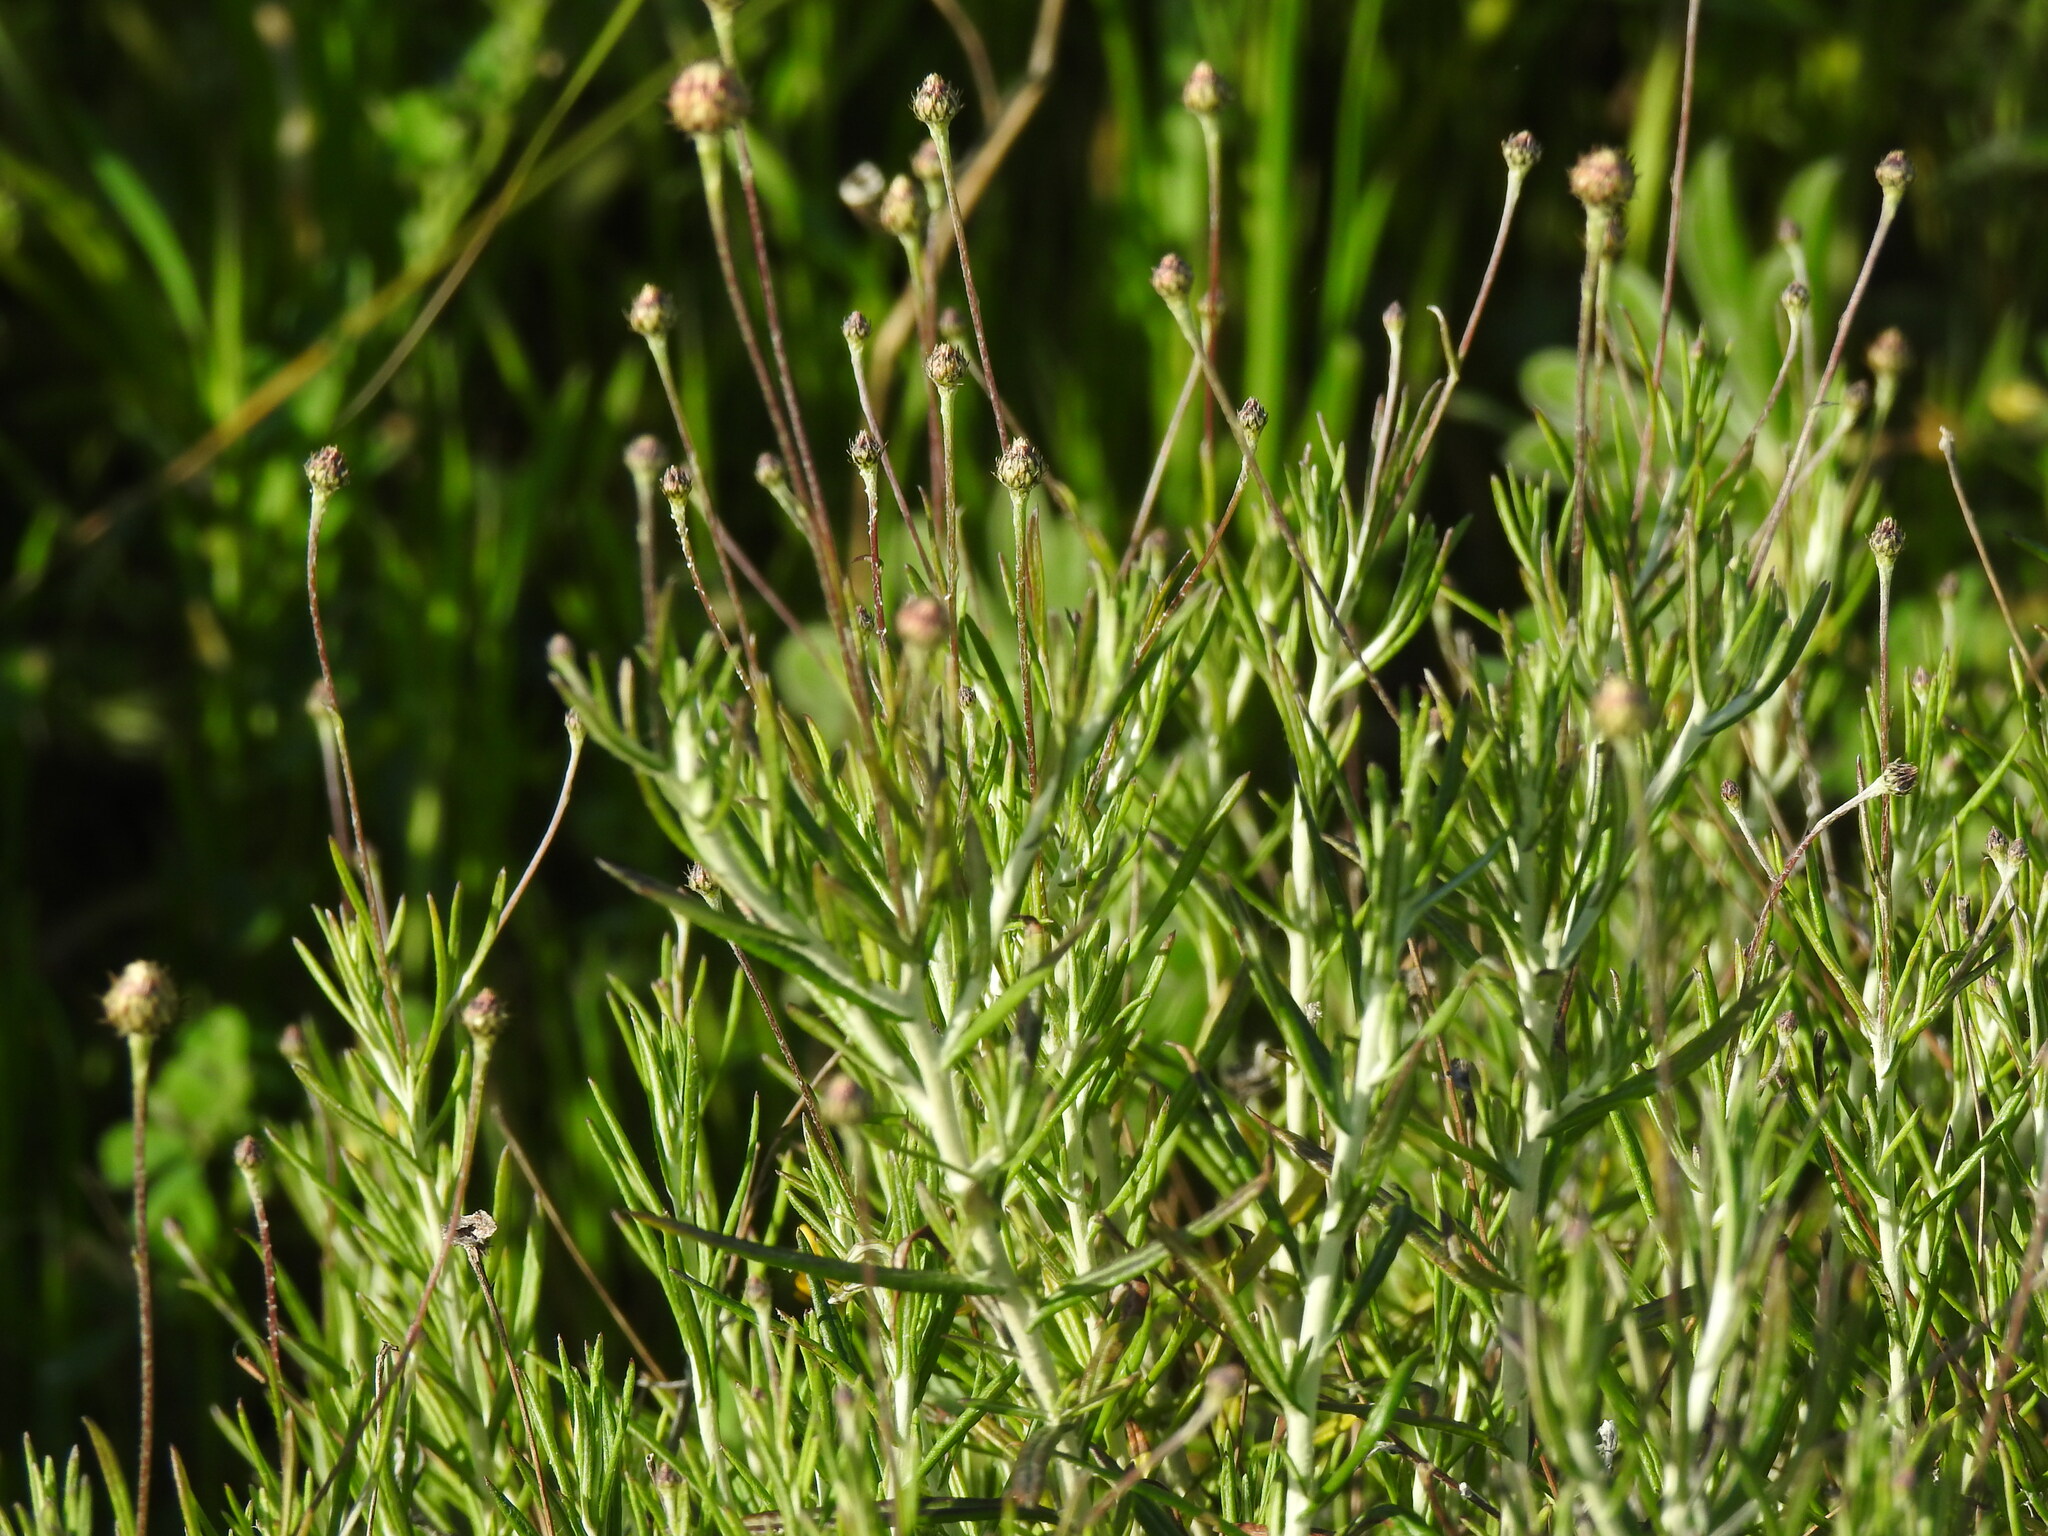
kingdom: Plantae
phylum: Tracheophyta
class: Magnoliopsida
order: Asterales
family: Asteraceae
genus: Phagnalon
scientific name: Phagnalon saxatile
